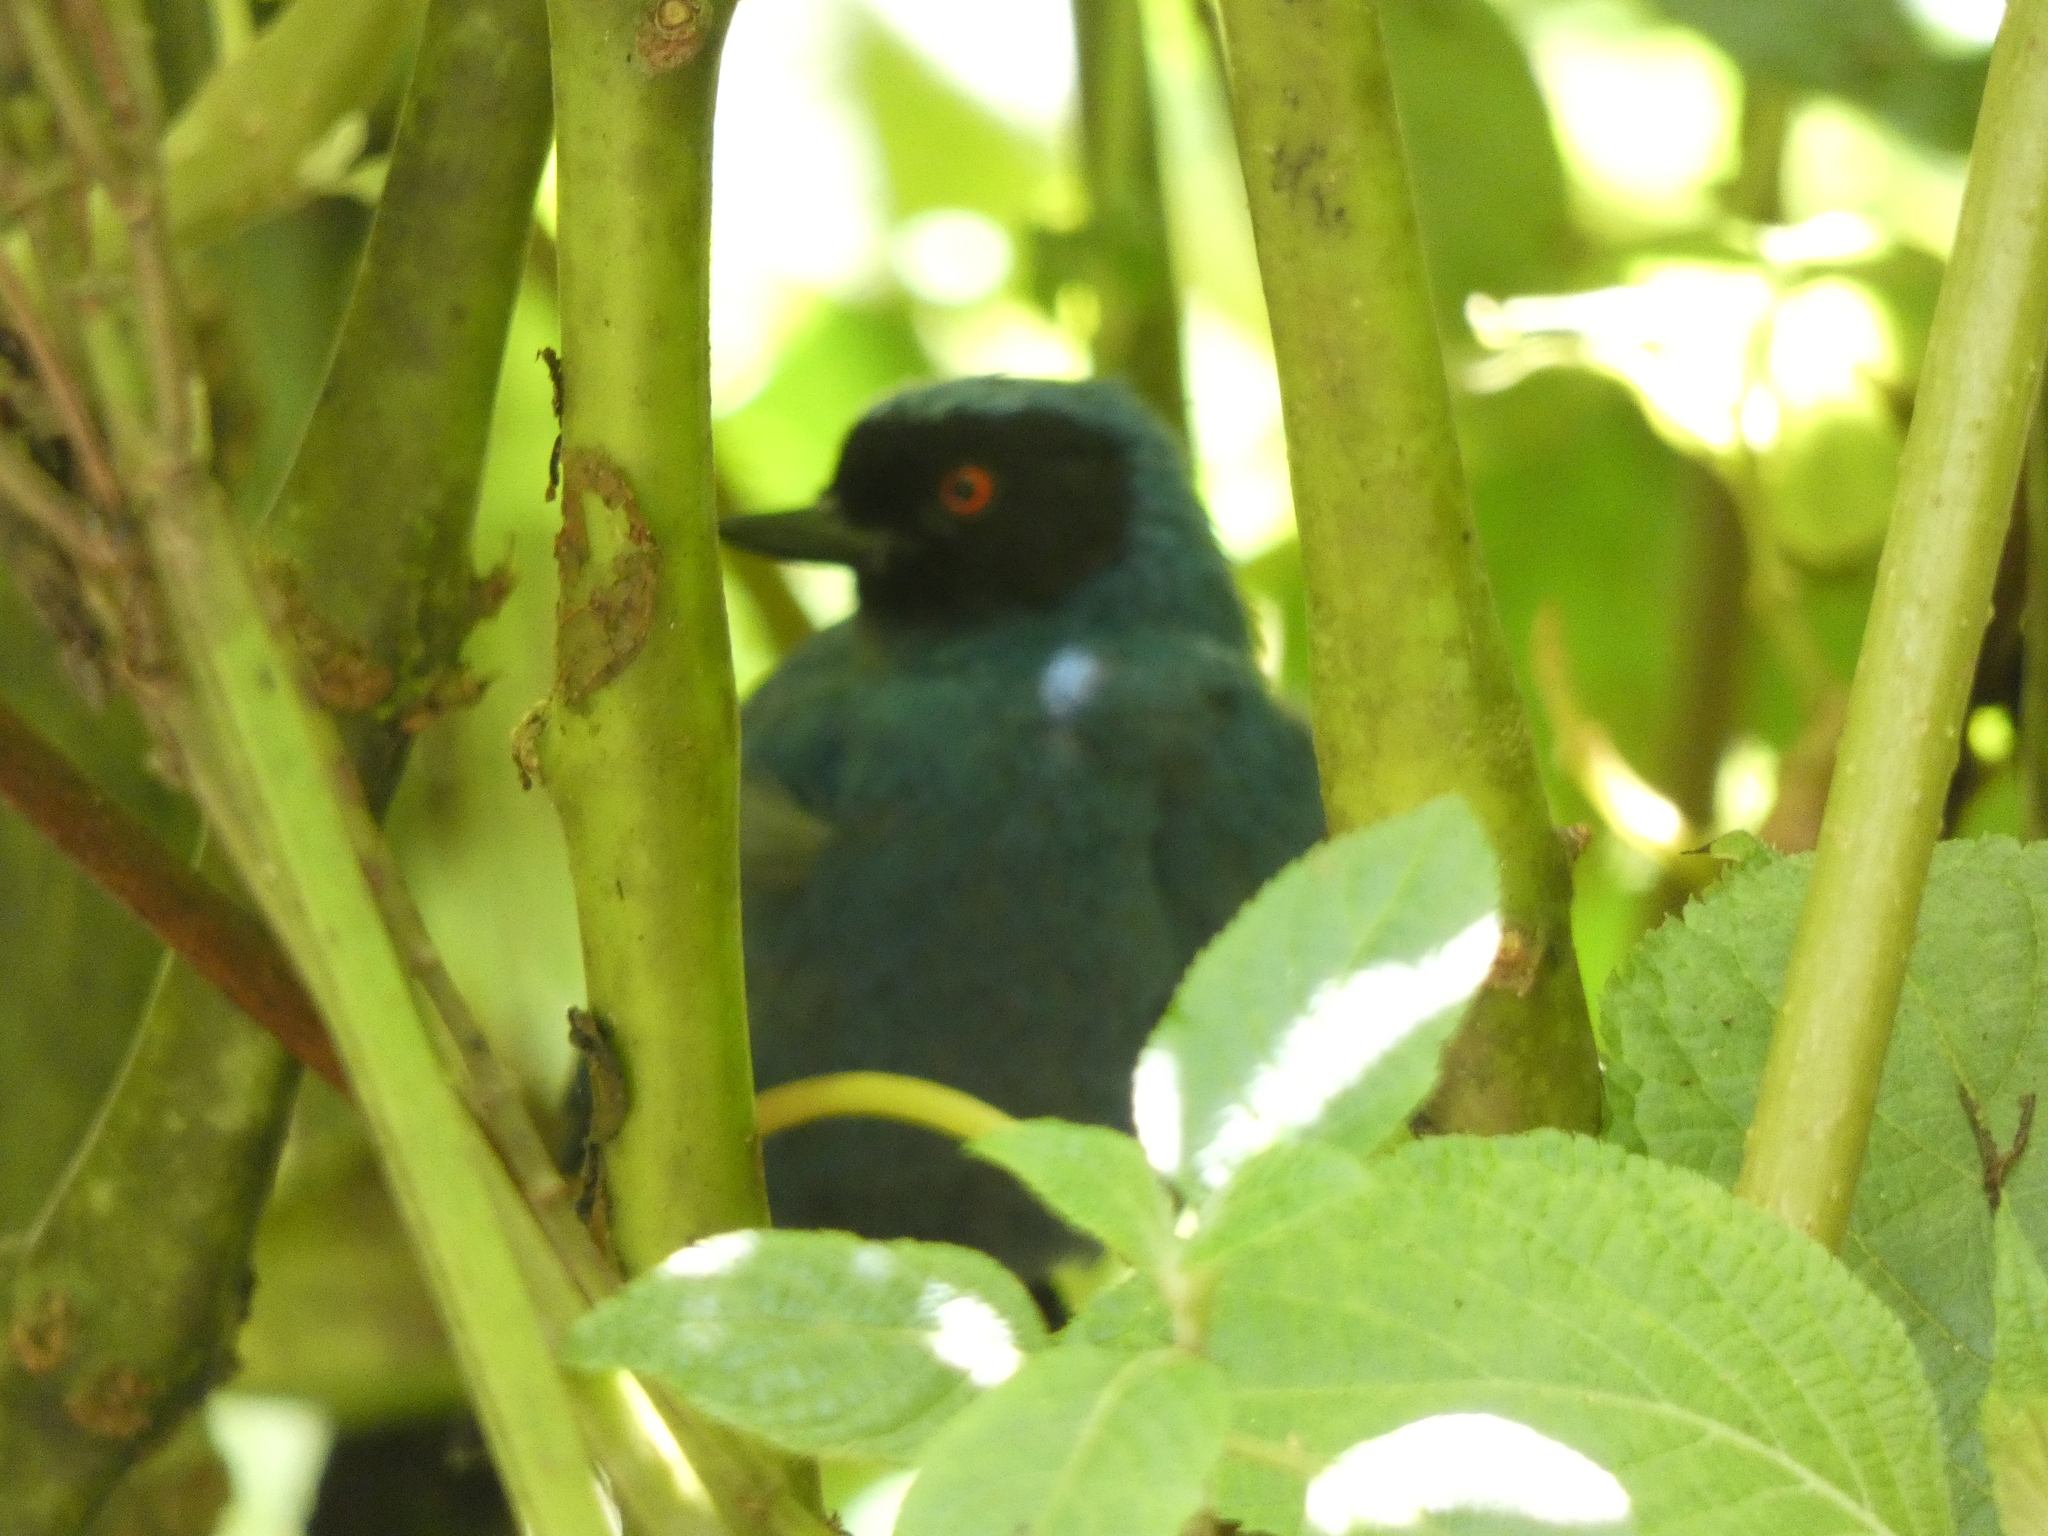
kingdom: Animalia
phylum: Chordata
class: Aves
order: Passeriformes
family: Thraupidae
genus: Diglossa
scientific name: Diglossa cyanea
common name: Masked flowerpiercer
